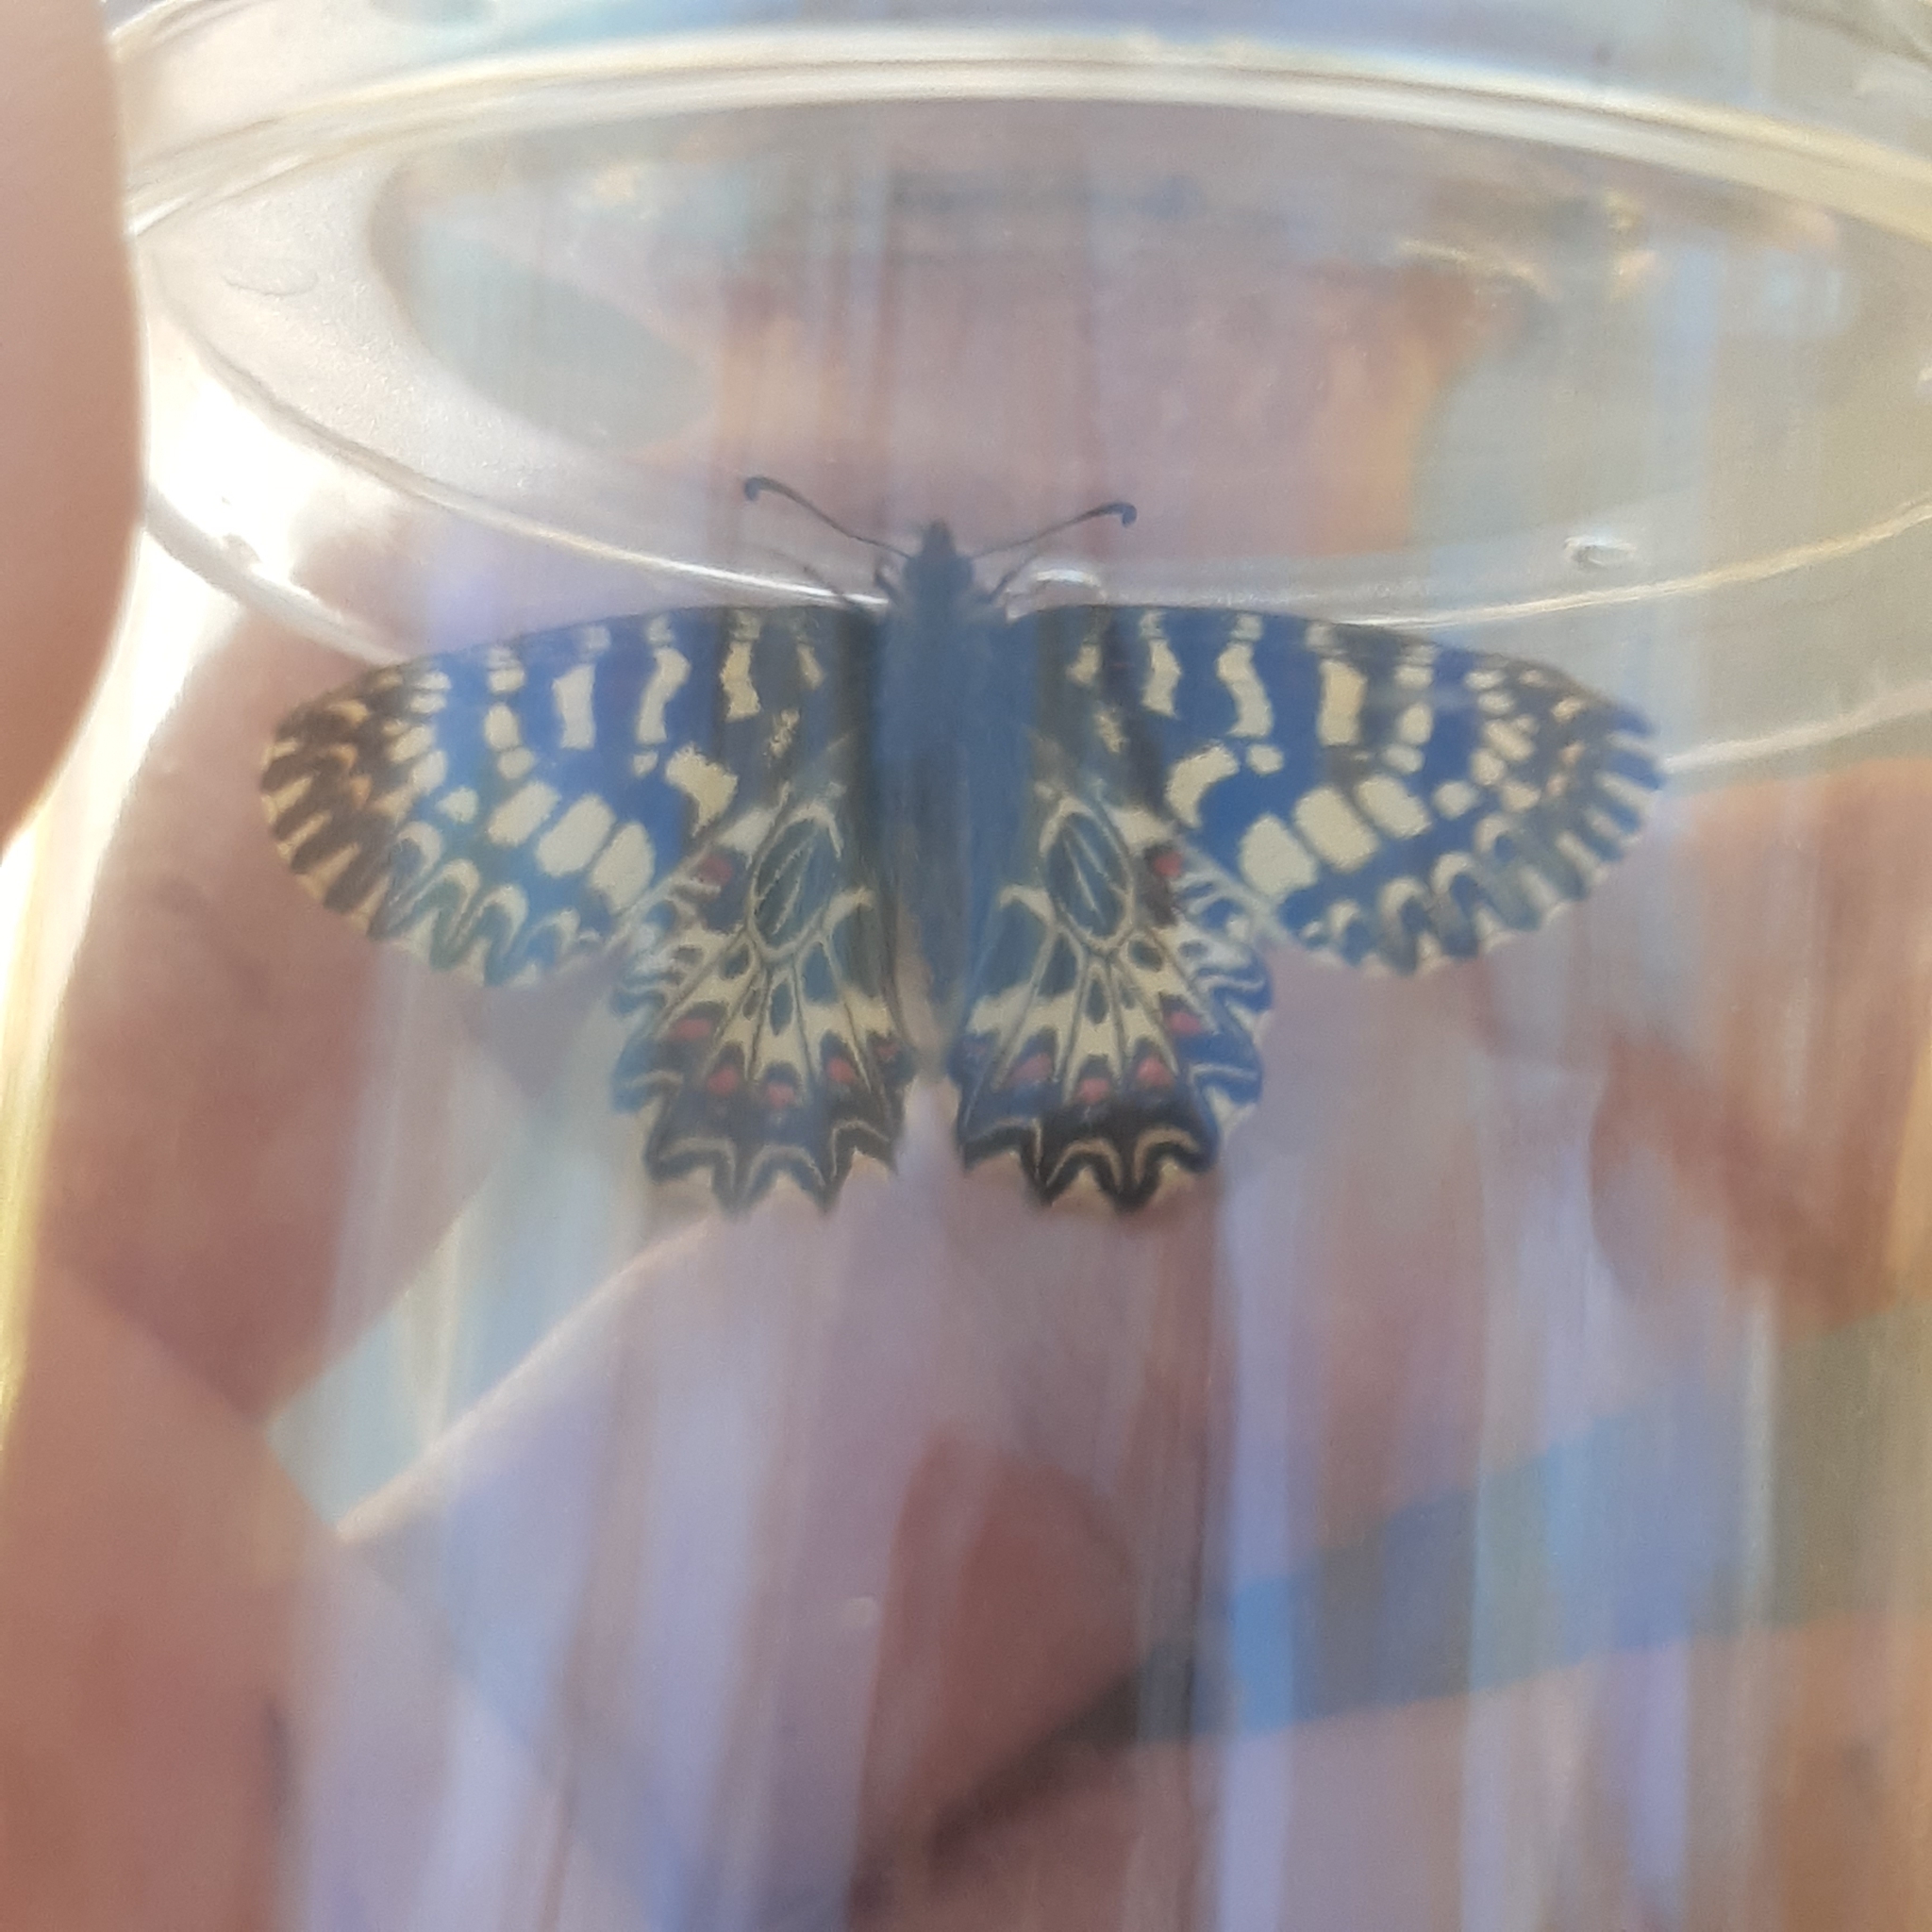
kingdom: Animalia
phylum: Arthropoda
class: Insecta
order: Lepidoptera
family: Papilionidae
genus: Zerynthia
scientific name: Zerynthia polyxena
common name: Southern festoon
